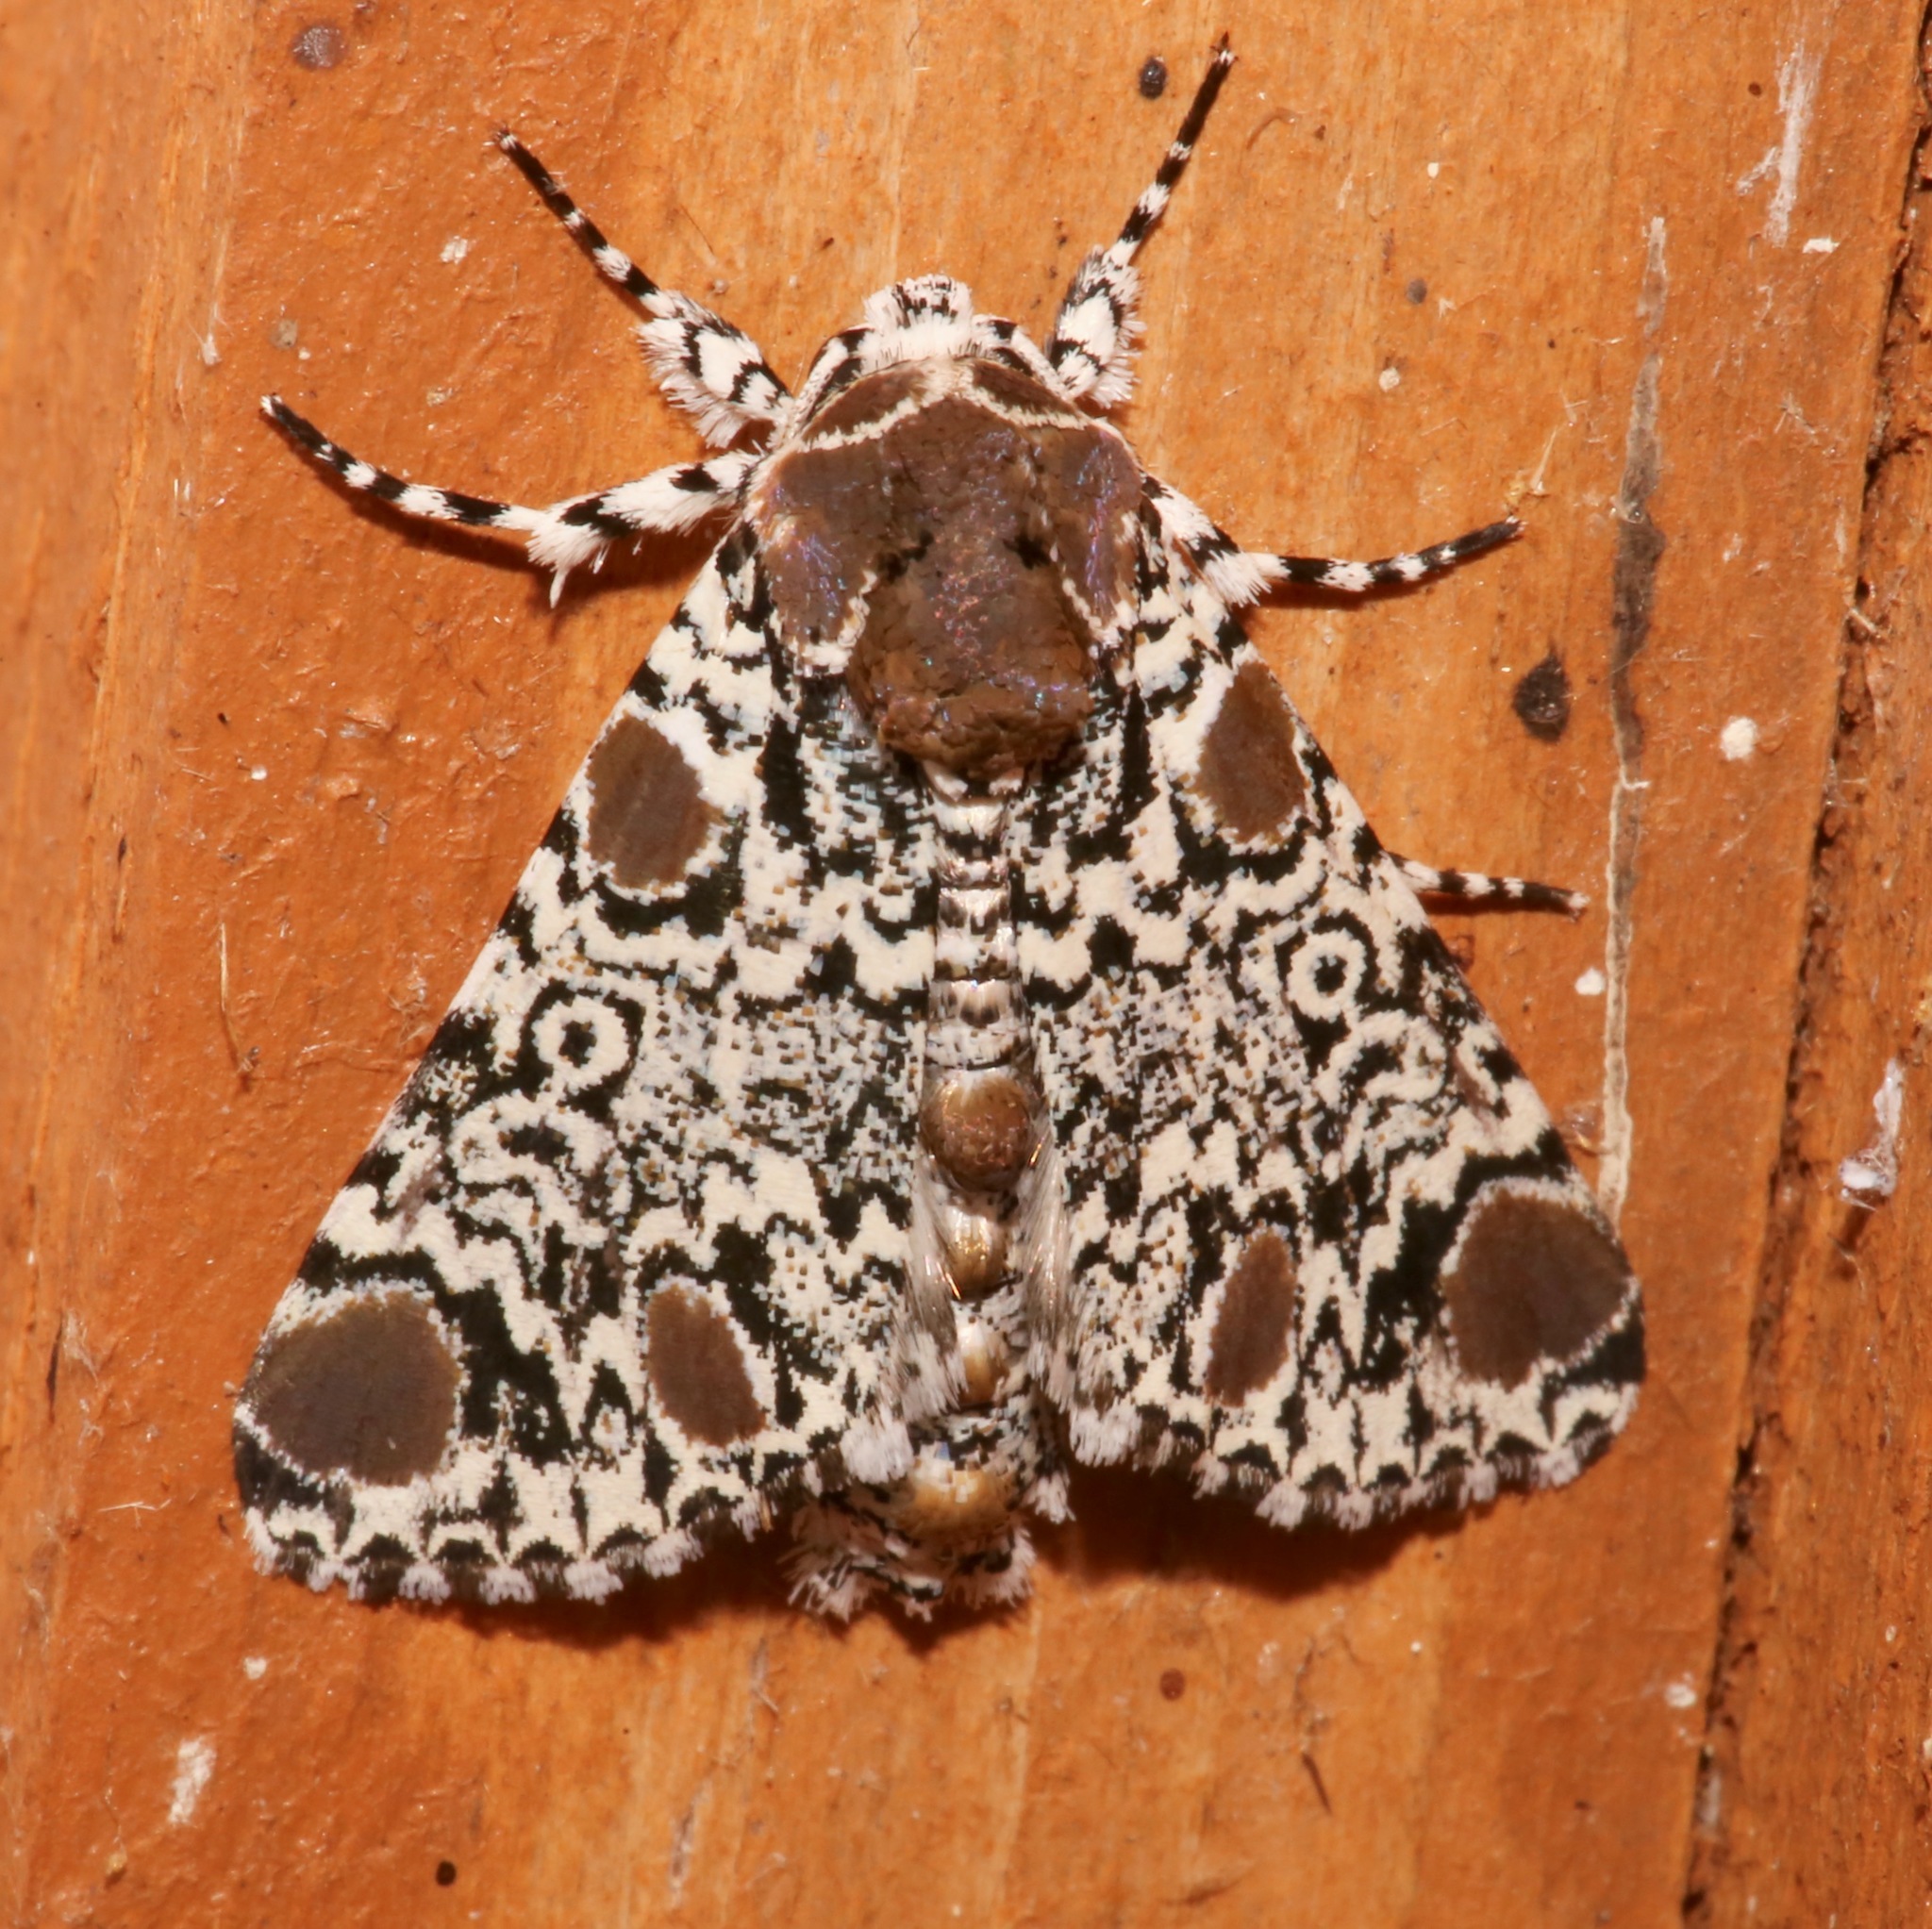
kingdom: Animalia
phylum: Arthropoda
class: Insecta
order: Lepidoptera
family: Noctuidae
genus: Harrisimemna
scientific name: Harrisimemna trisignata
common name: Harris threespot
